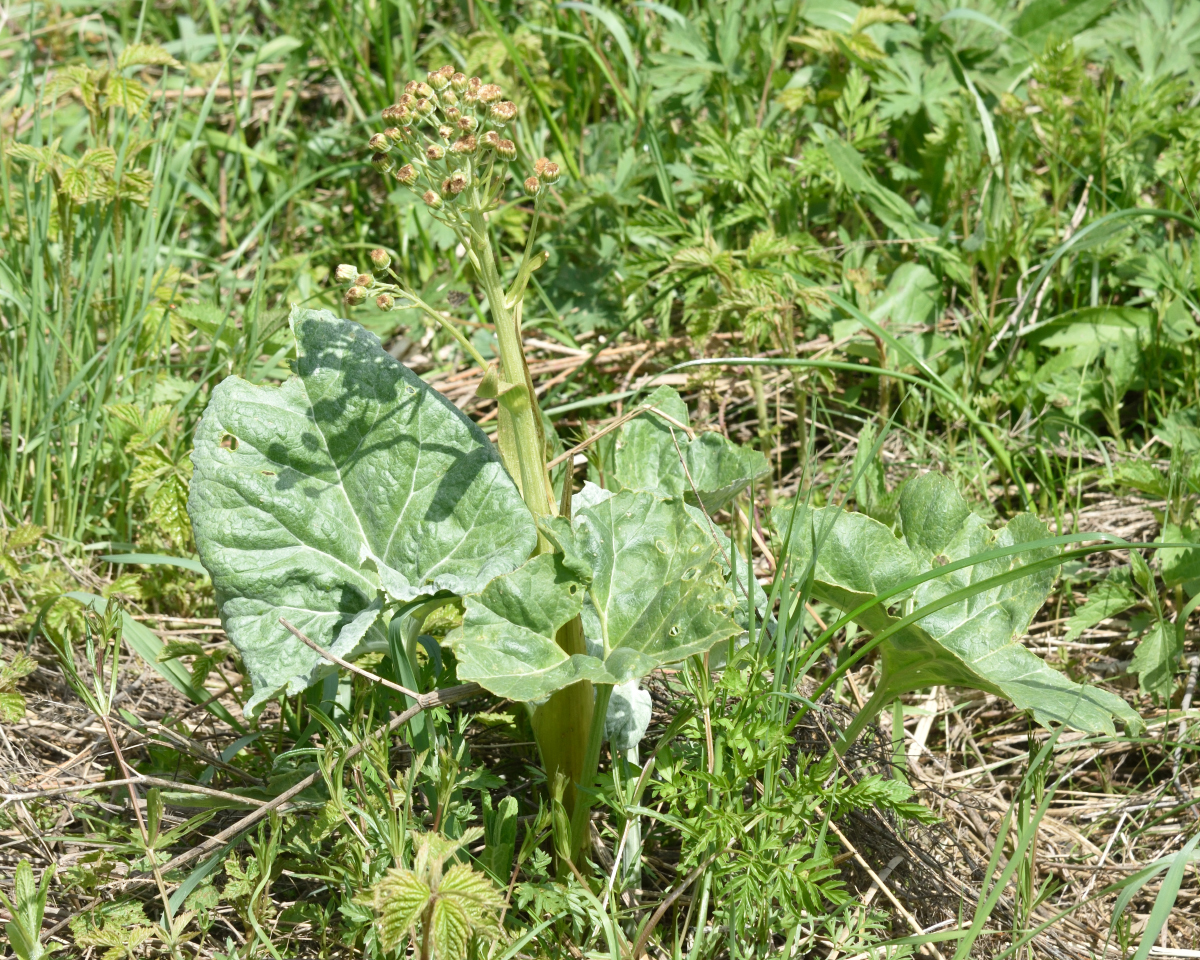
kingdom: Plantae
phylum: Tracheophyta
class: Magnoliopsida
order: Asterales
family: Asteraceae
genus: Petasites
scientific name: Petasites spurius
